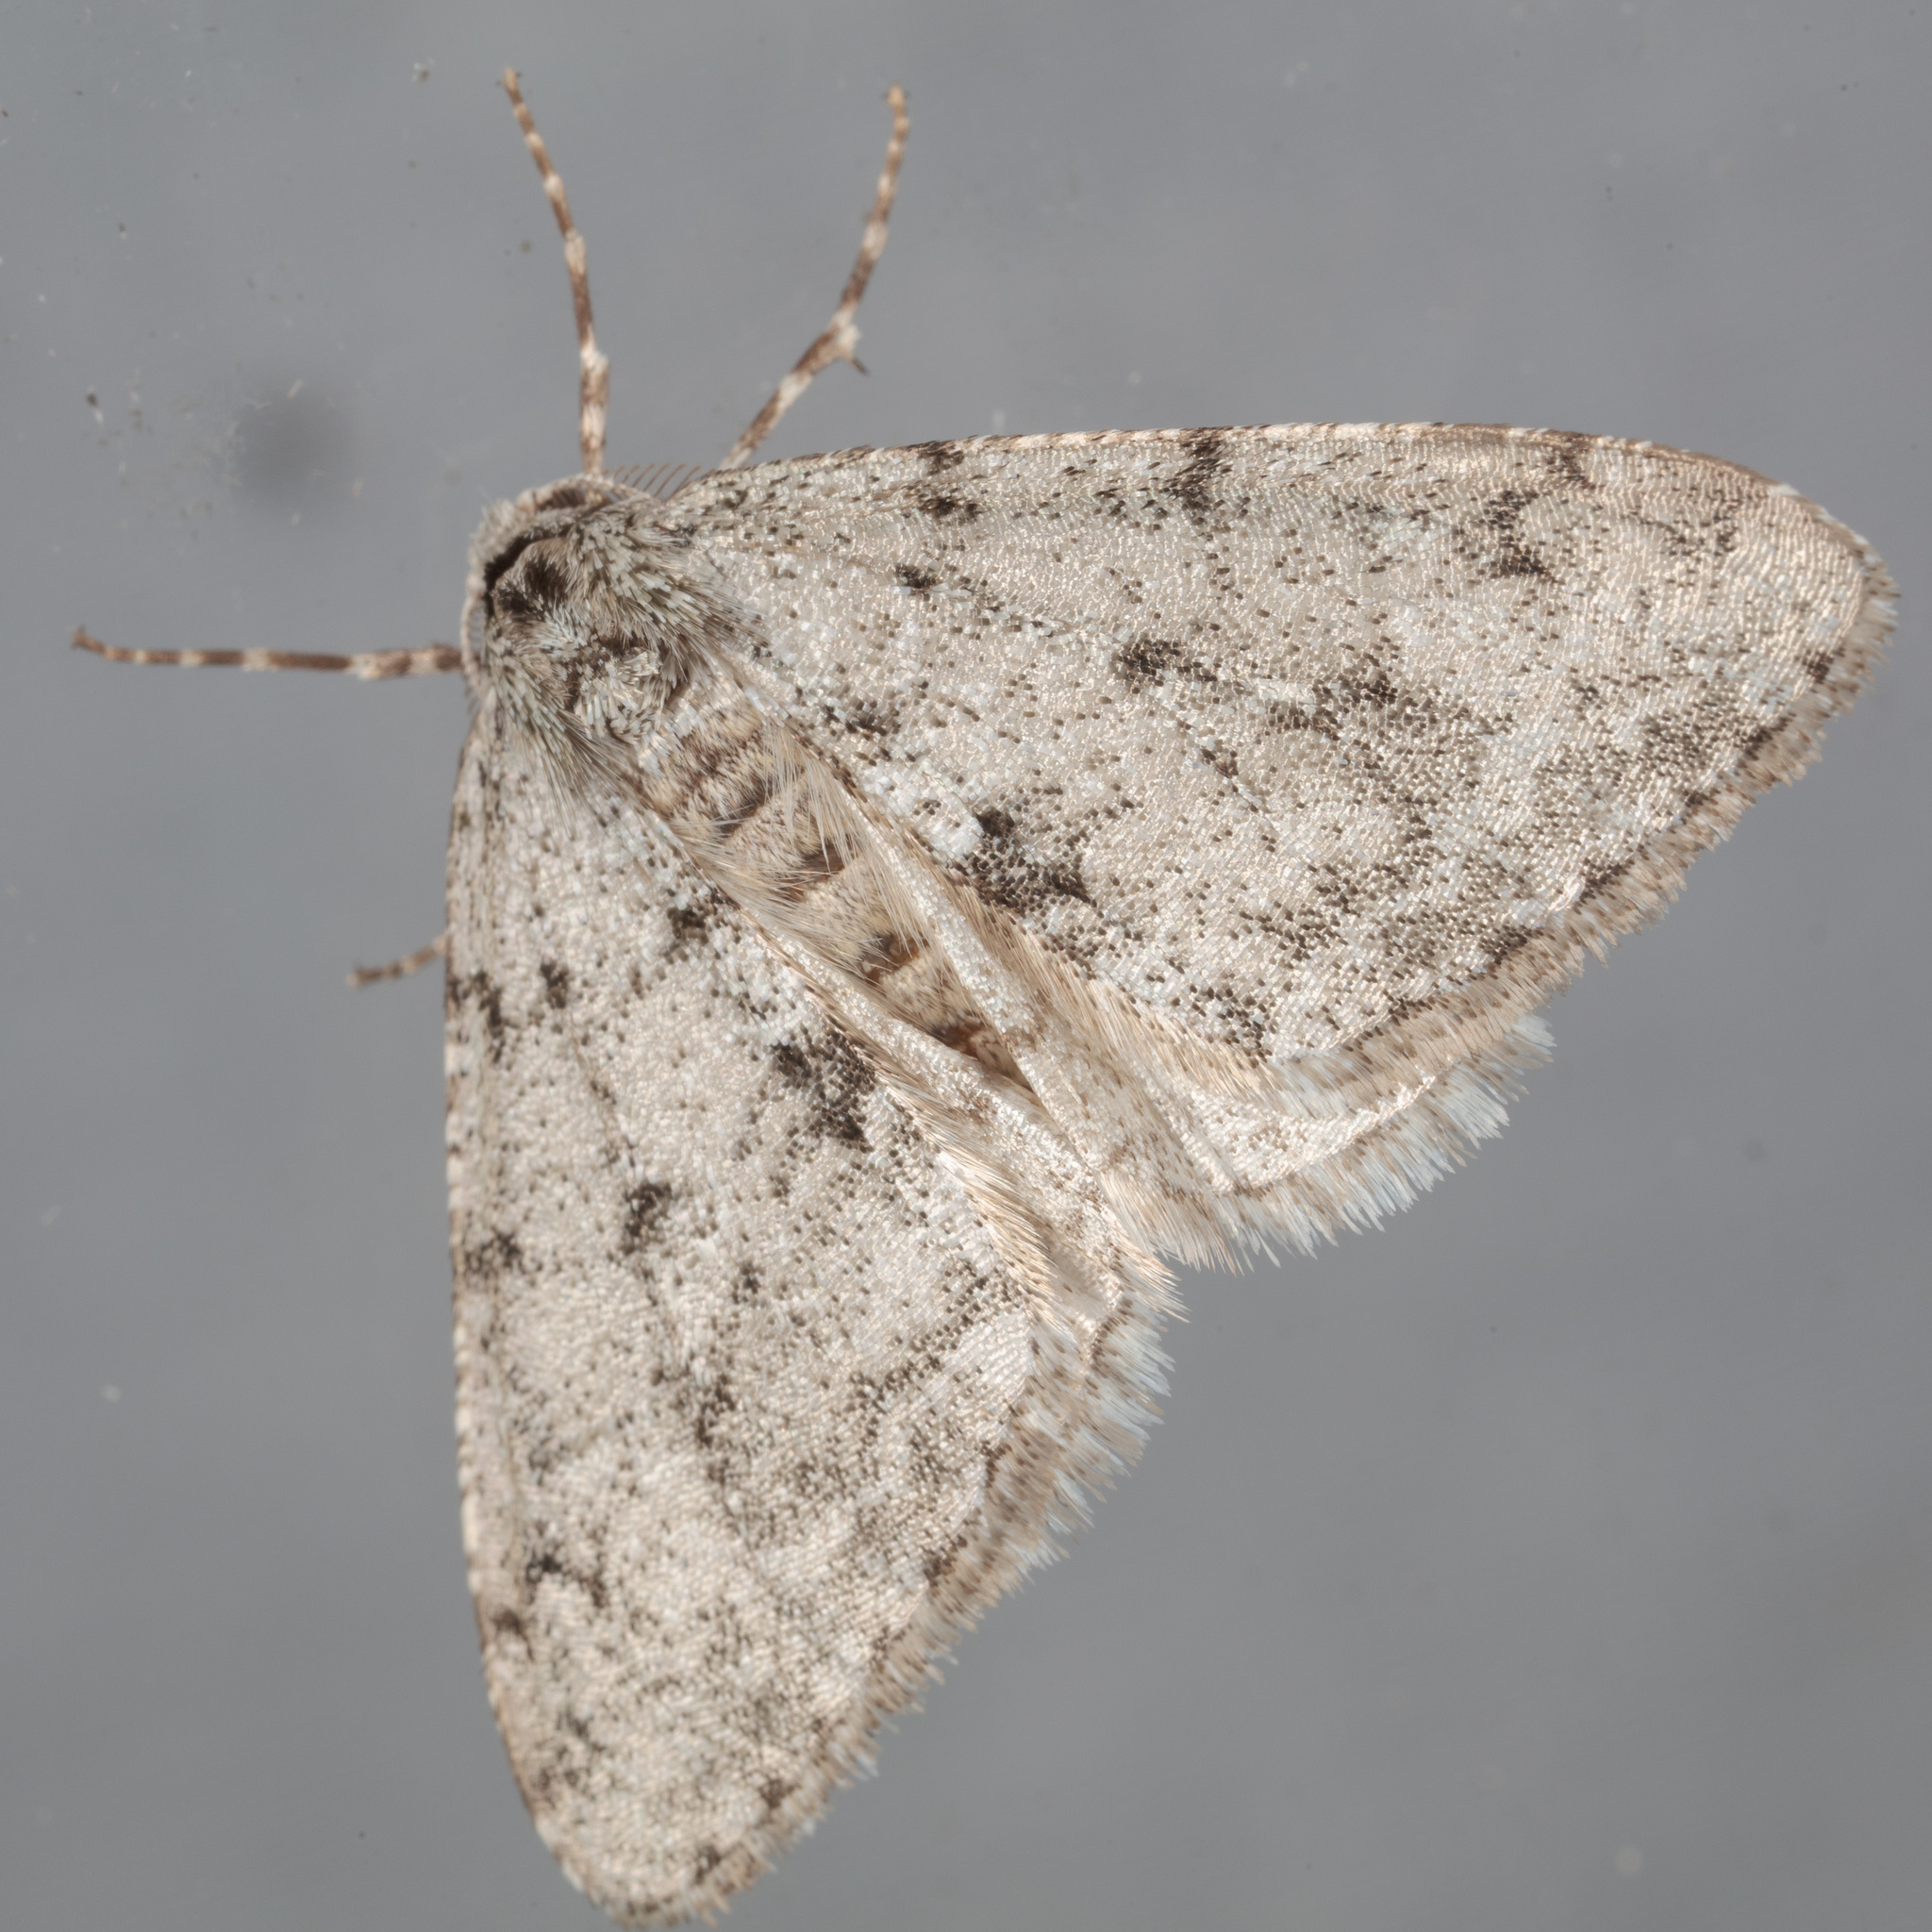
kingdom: Animalia
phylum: Arthropoda
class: Insecta
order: Lepidoptera
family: Geometridae
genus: Phigalia
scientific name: Phigalia strigataria
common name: Small phigalia
